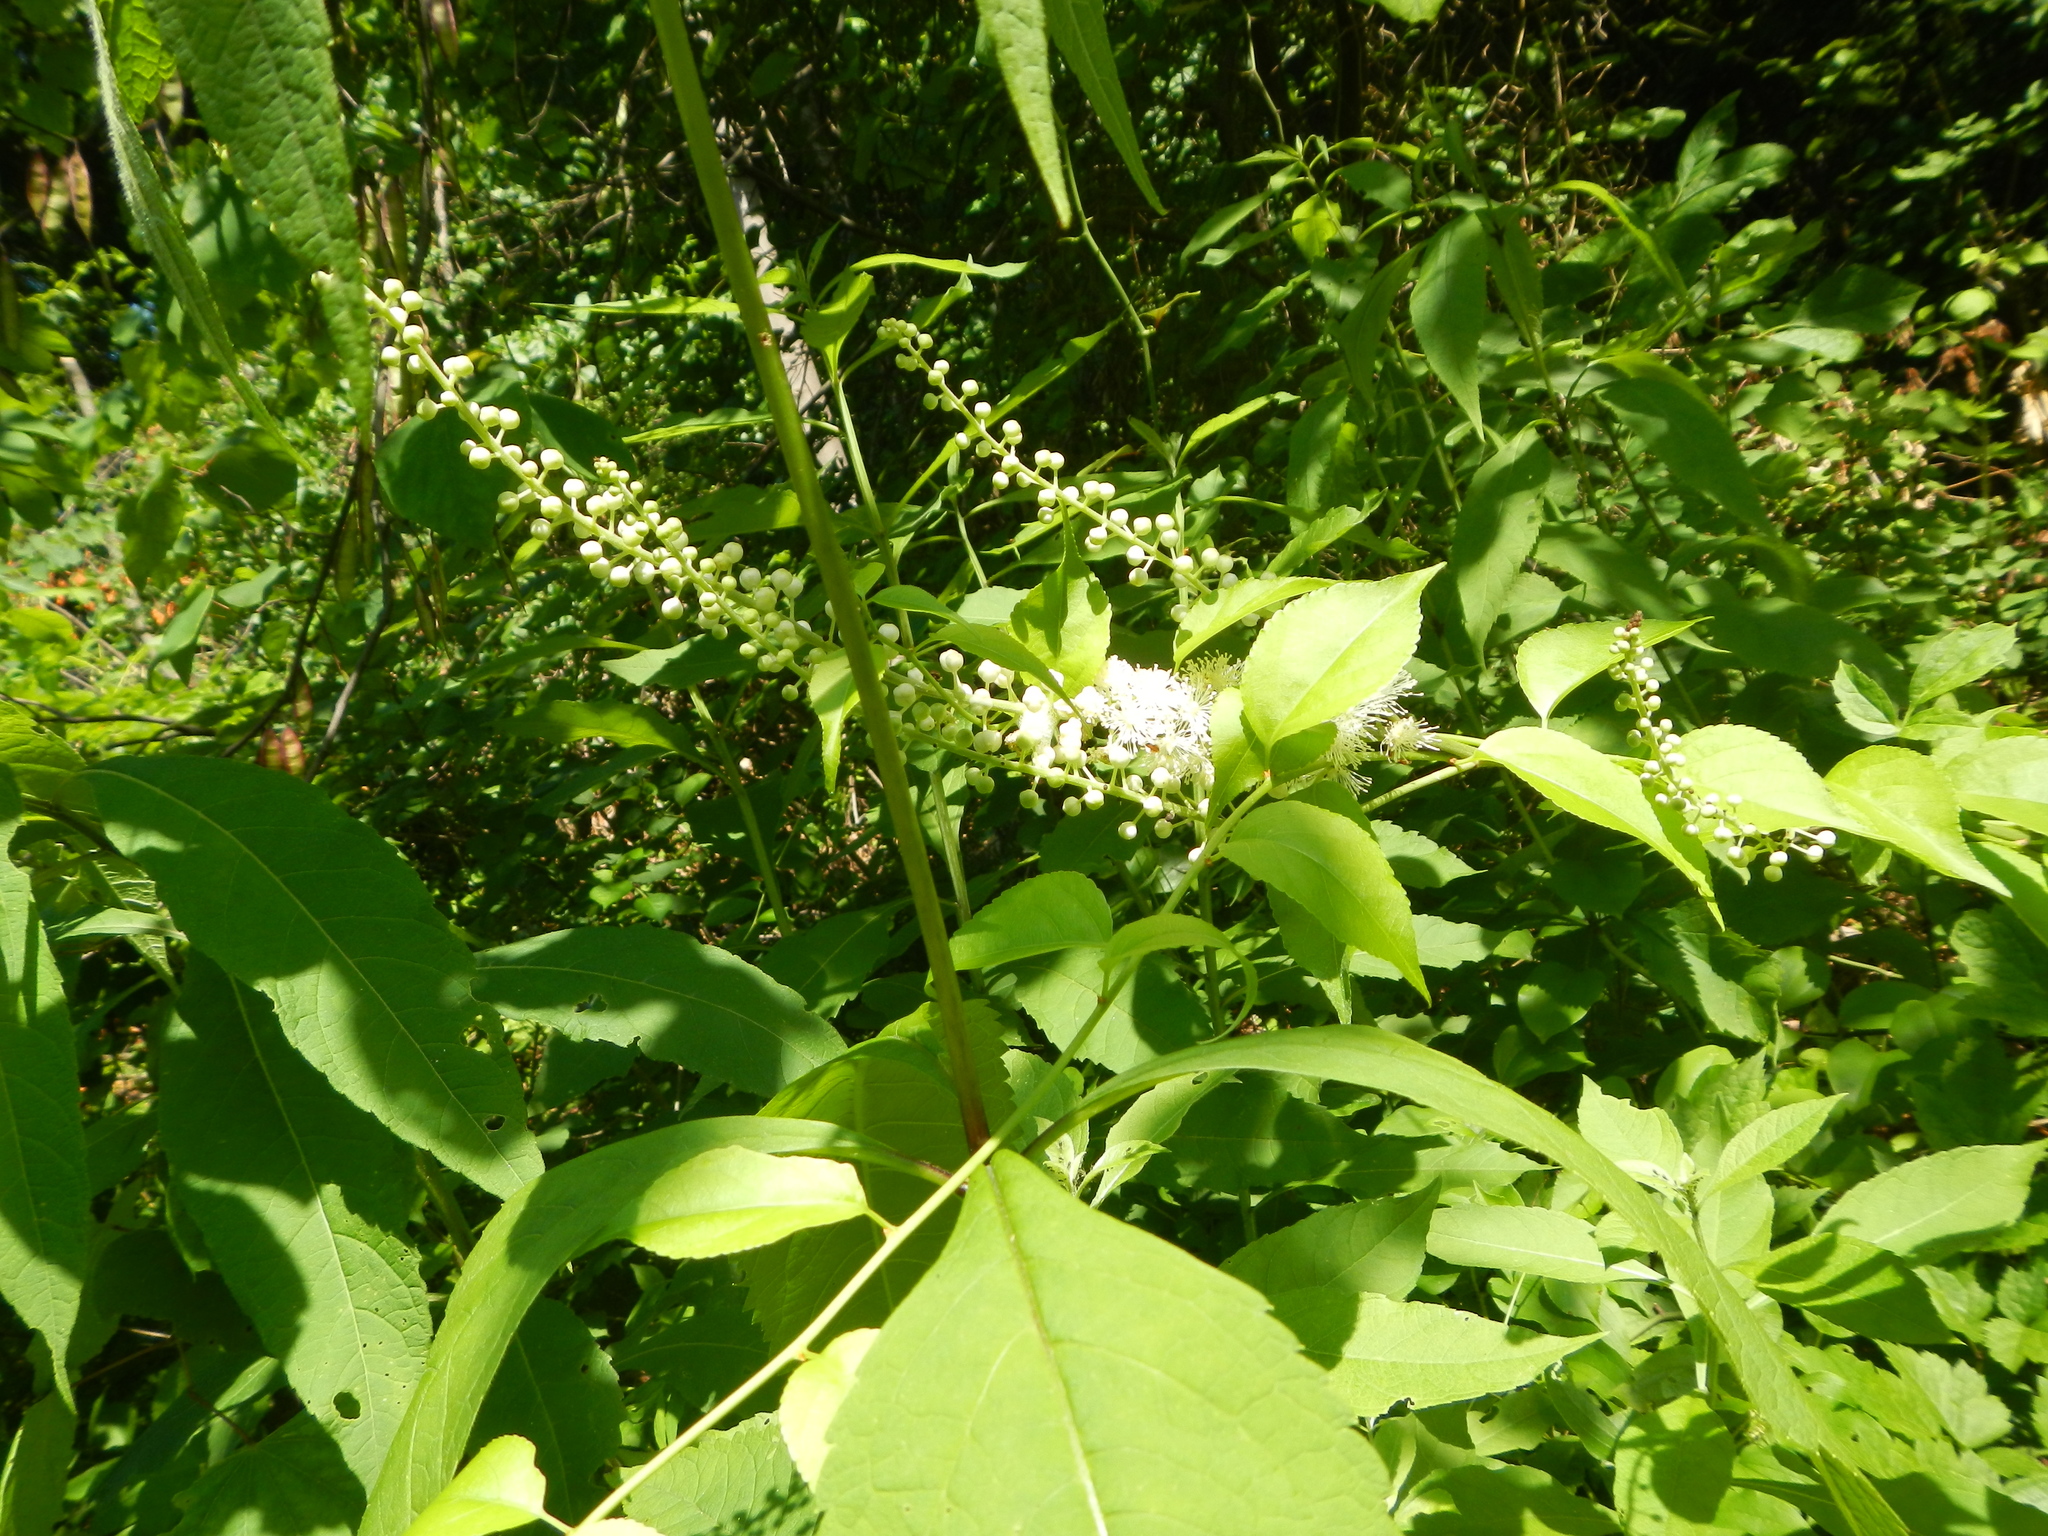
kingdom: Plantae
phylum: Tracheophyta
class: Magnoliopsida
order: Ranunculales
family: Ranunculaceae
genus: Actaea
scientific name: Actaea racemosa
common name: Black cohosh
